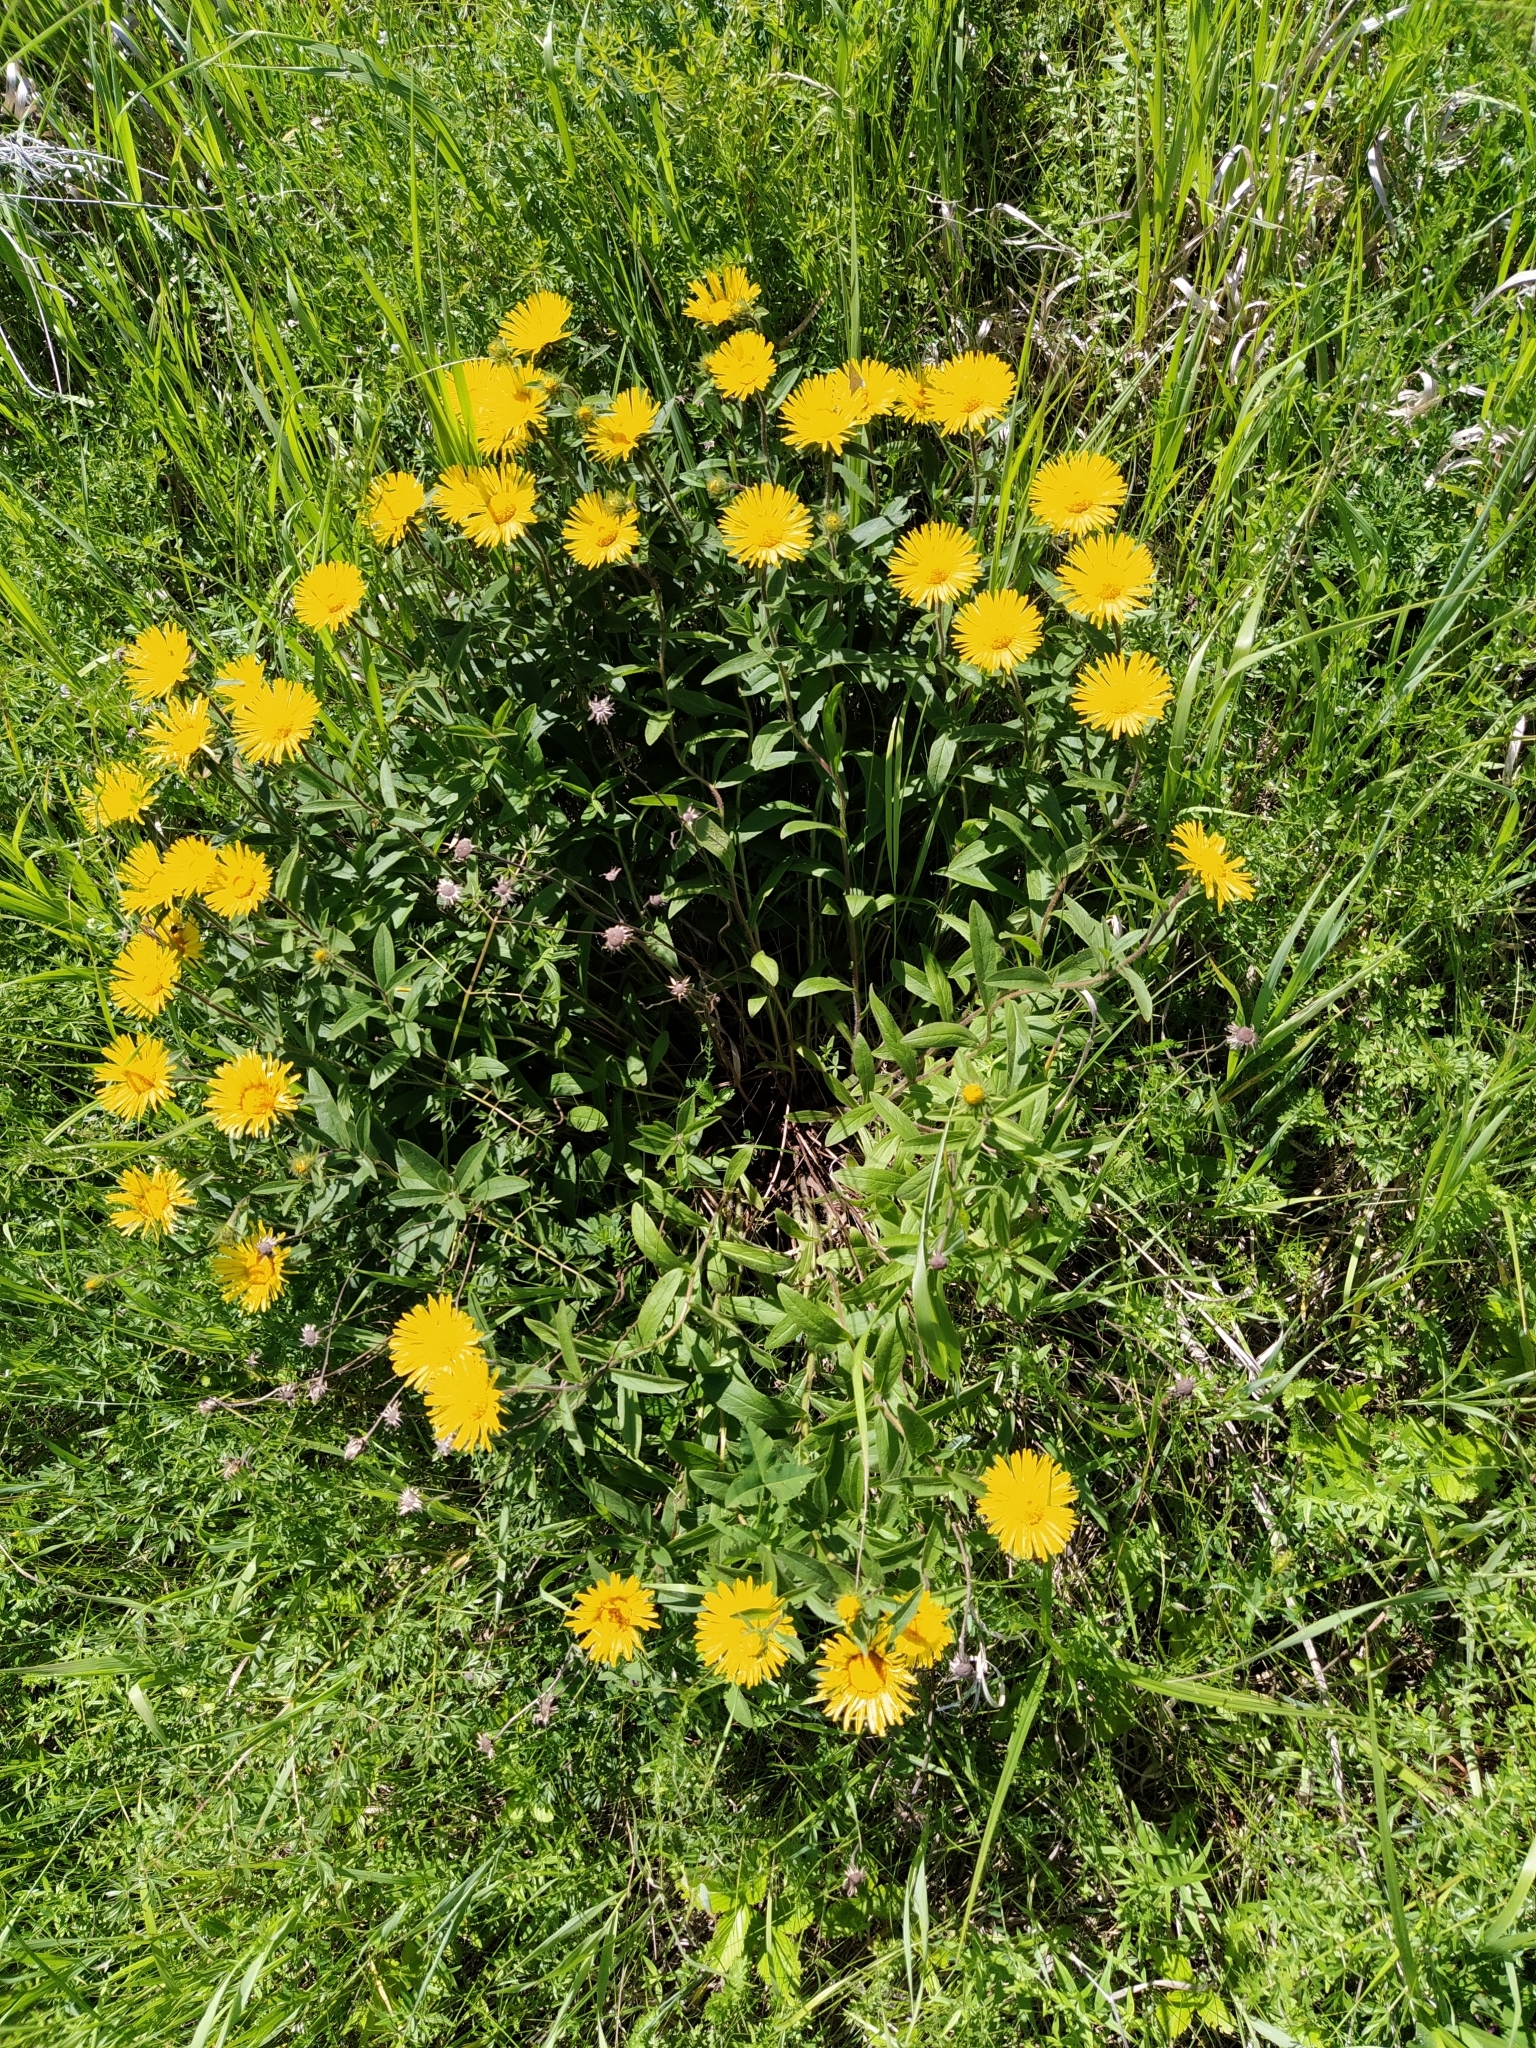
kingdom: Plantae
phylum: Tracheophyta
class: Magnoliopsida
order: Asterales
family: Asteraceae
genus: Pentanema
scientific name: Pentanema hirtum
